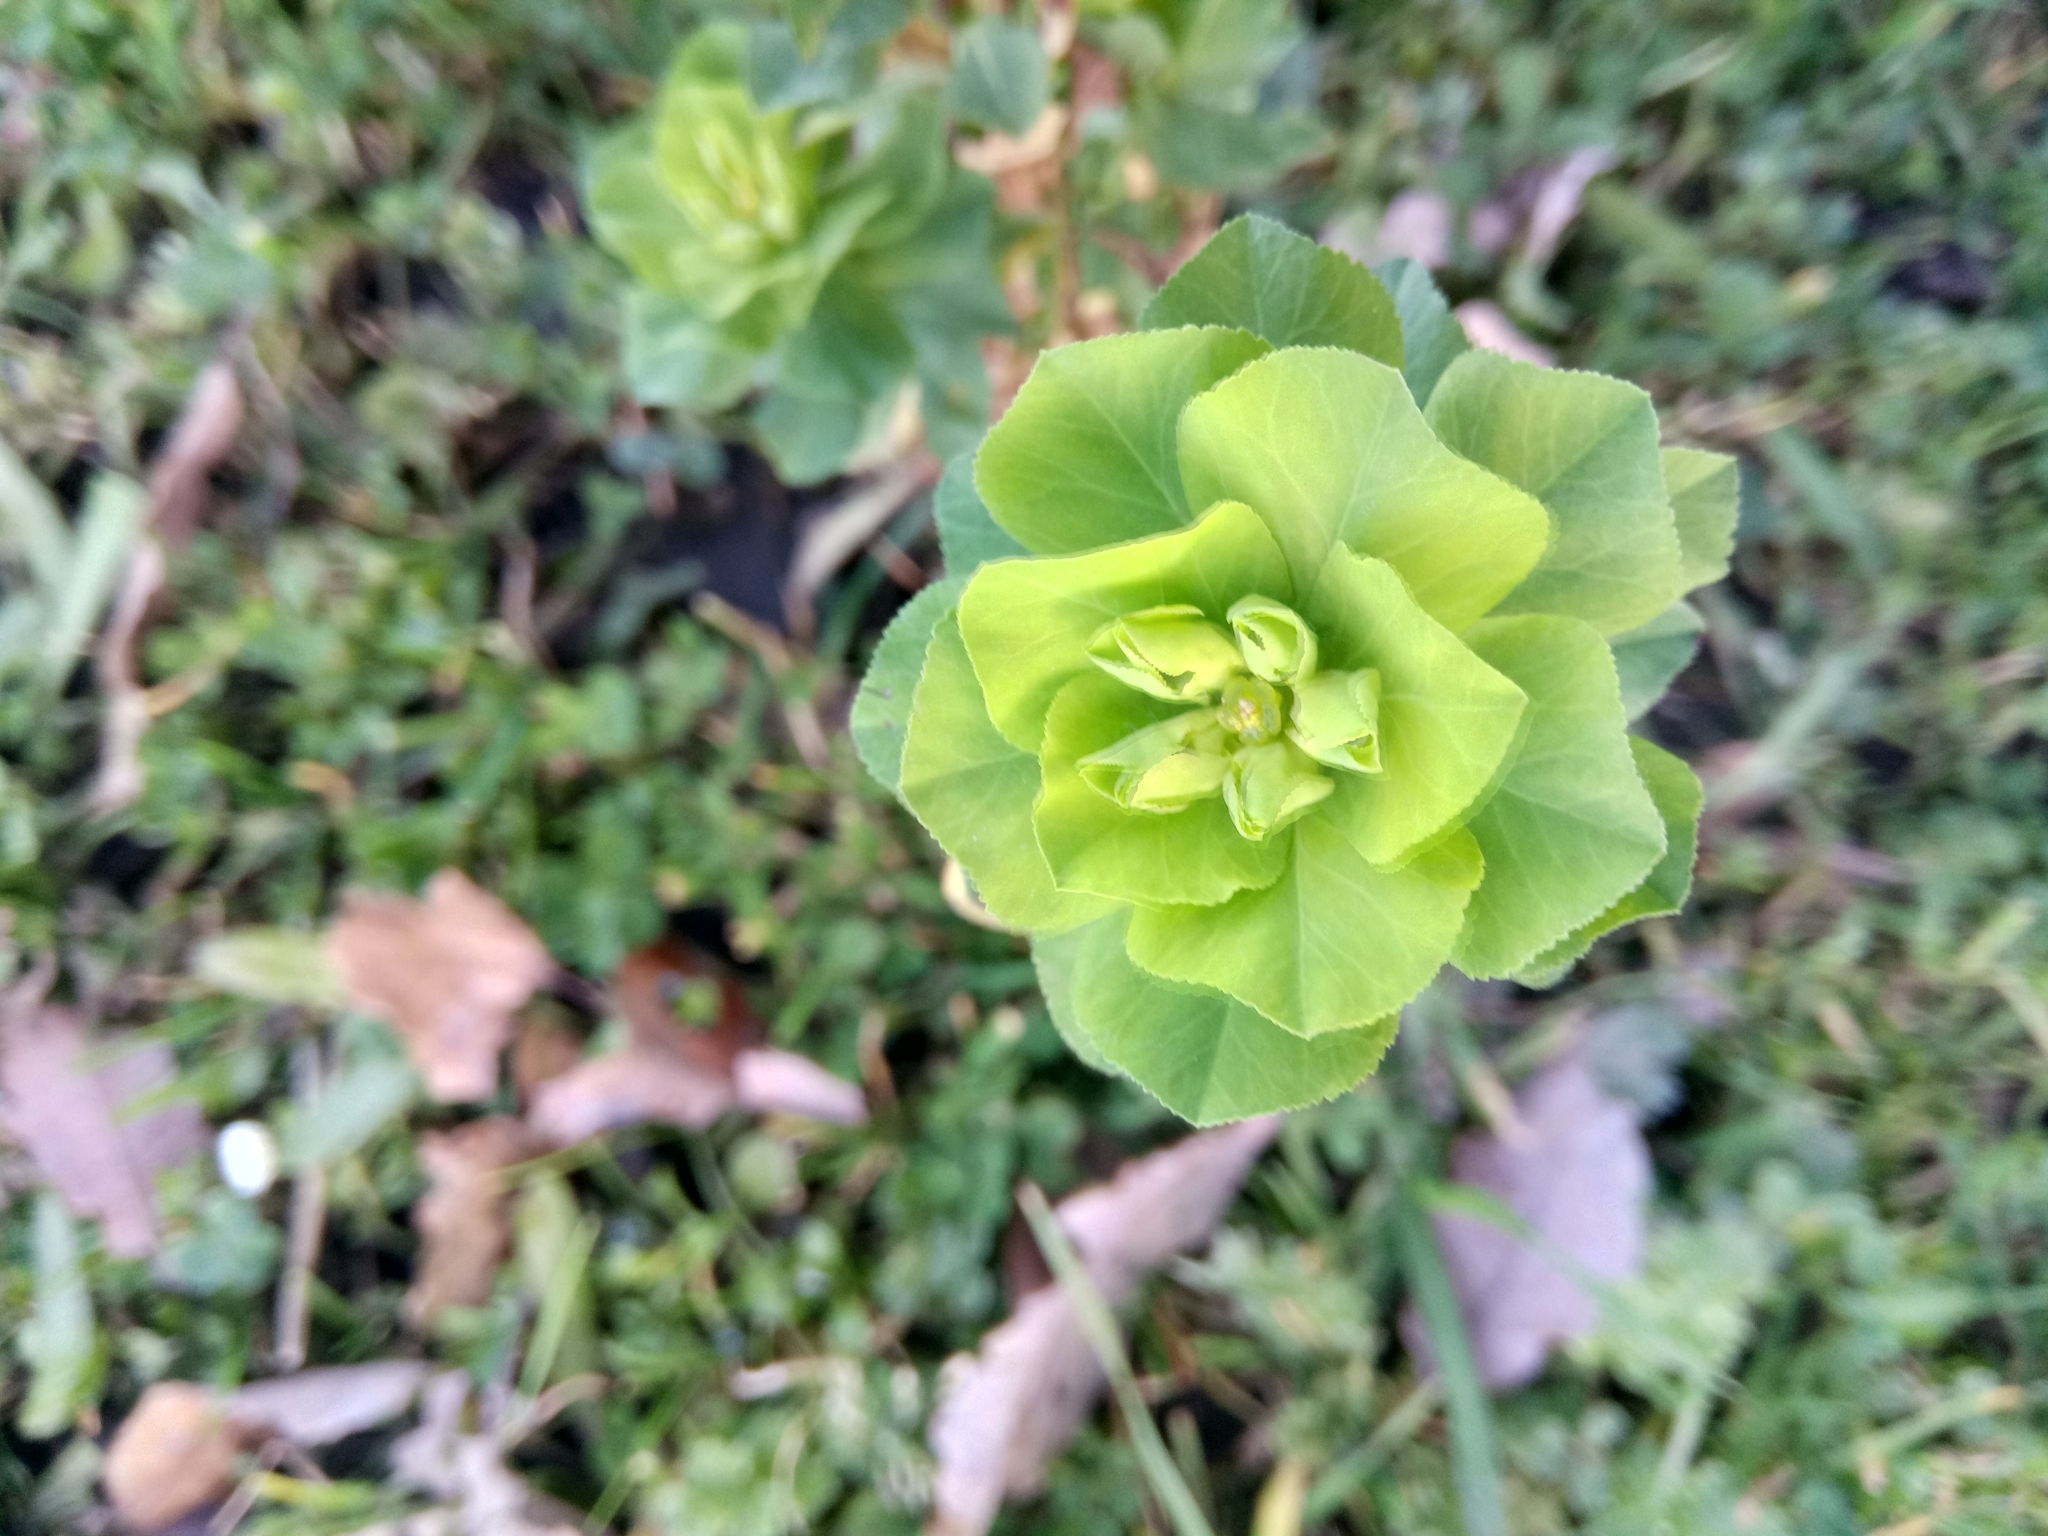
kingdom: Plantae
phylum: Tracheophyta
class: Magnoliopsida
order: Malpighiales
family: Euphorbiaceae
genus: Euphorbia
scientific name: Euphorbia helioscopia
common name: Sun spurge
